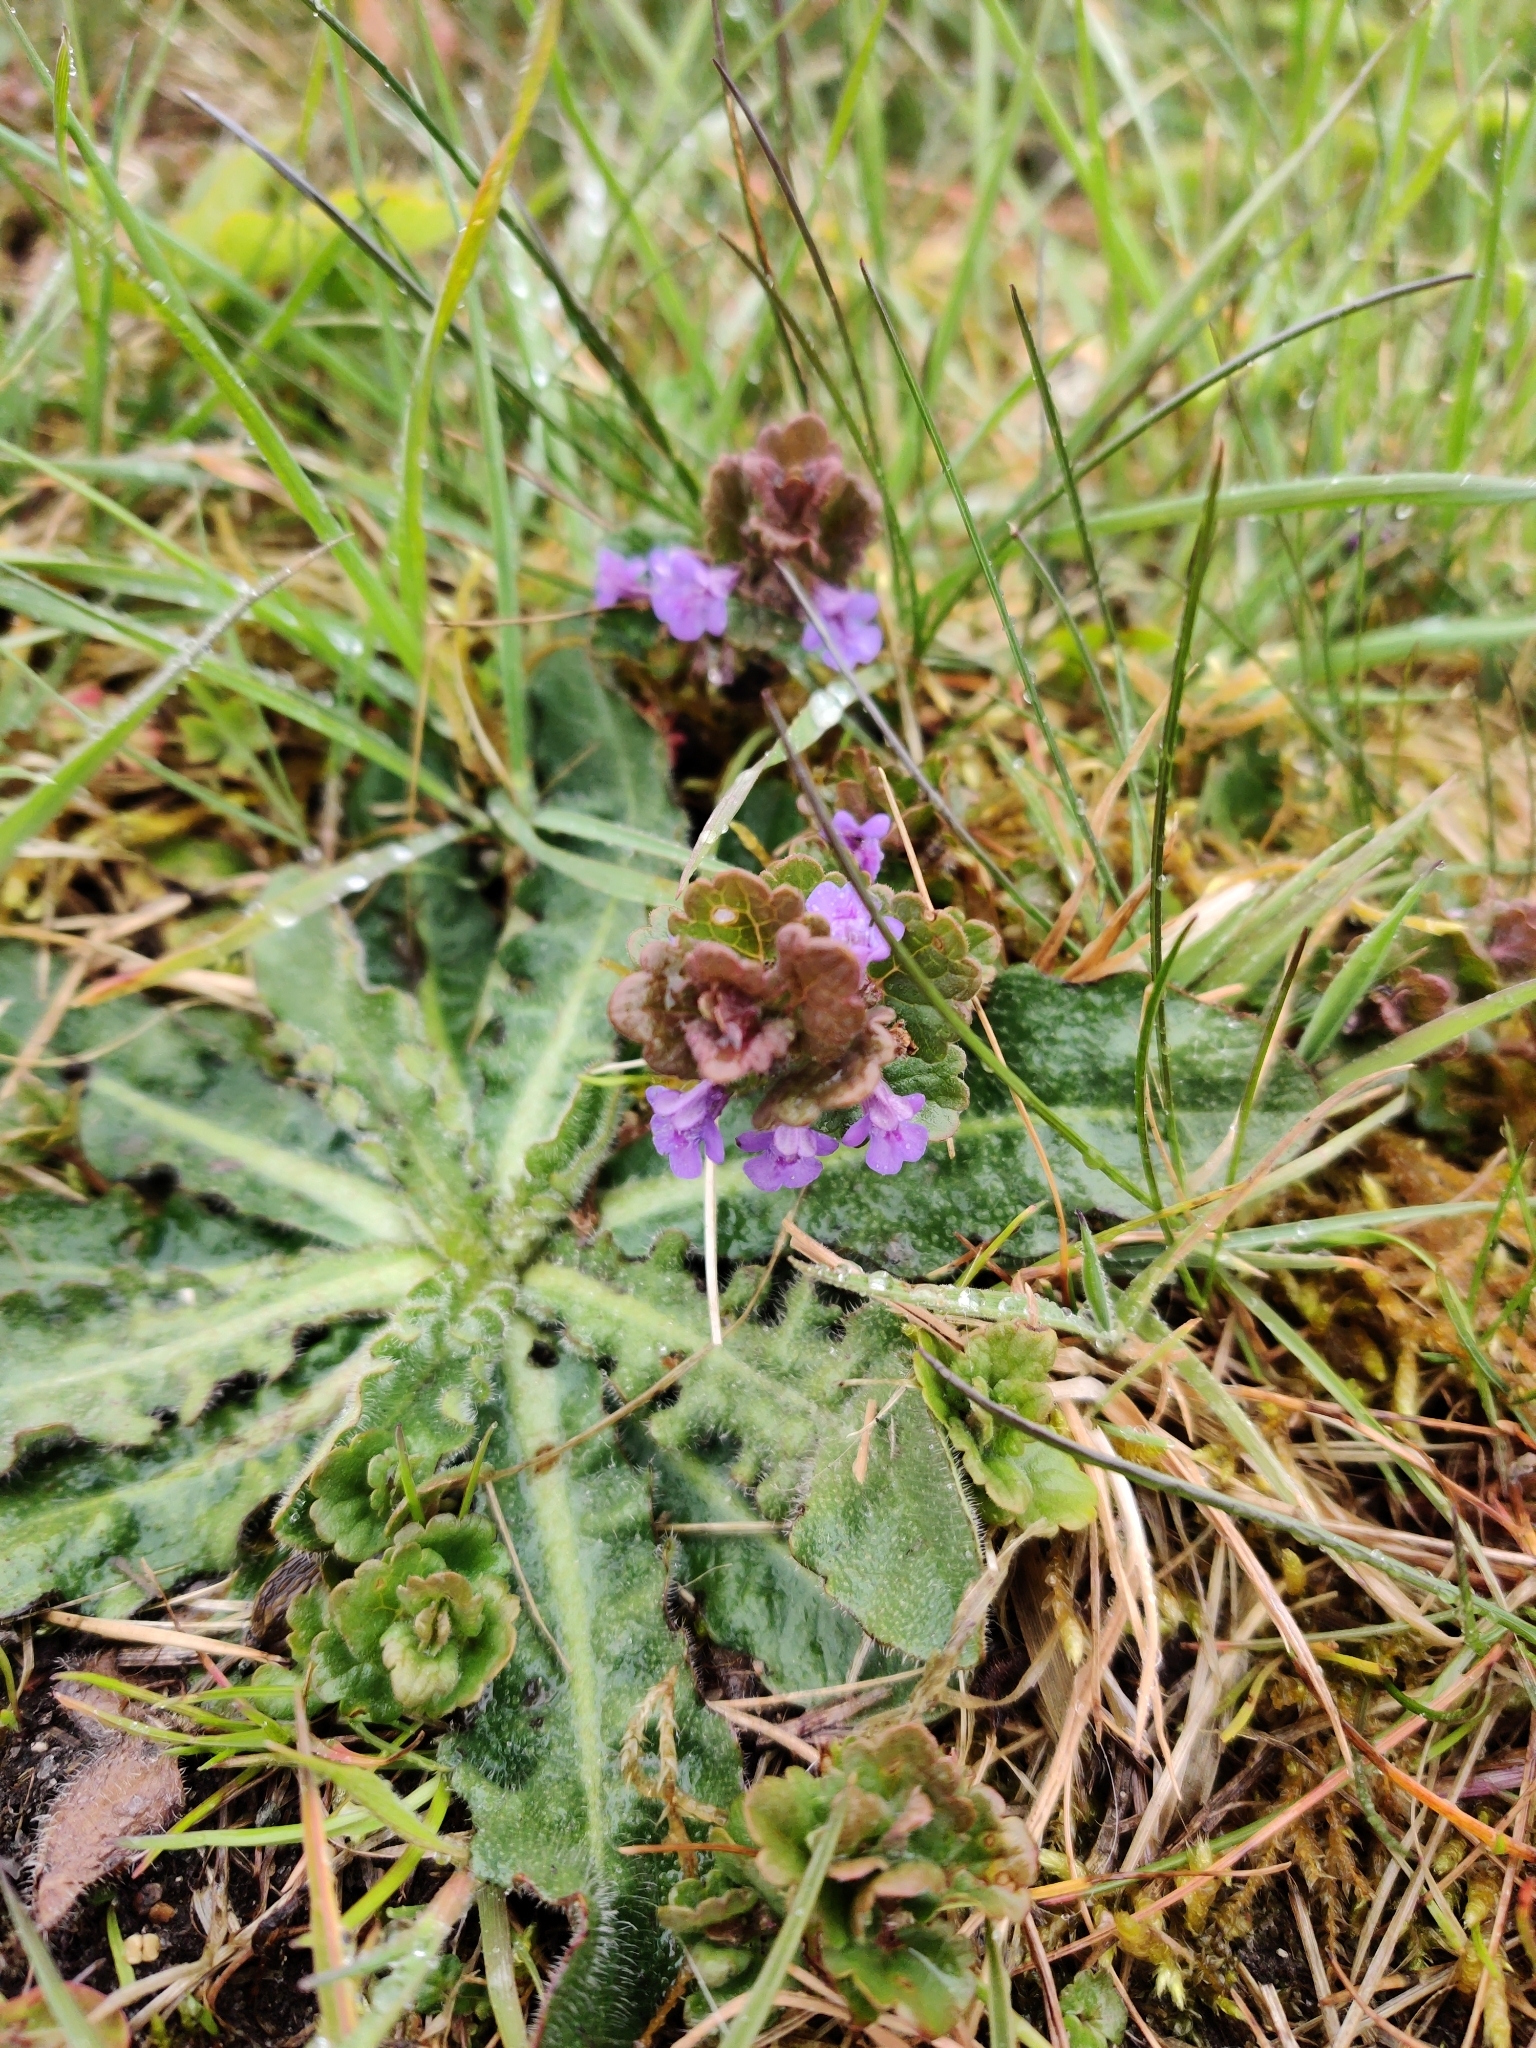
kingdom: Plantae
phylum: Tracheophyta
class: Magnoliopsida
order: Lamiales
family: Lamiaceae
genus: Glechoma
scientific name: Glechoma hederacea
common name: Ground ivy
